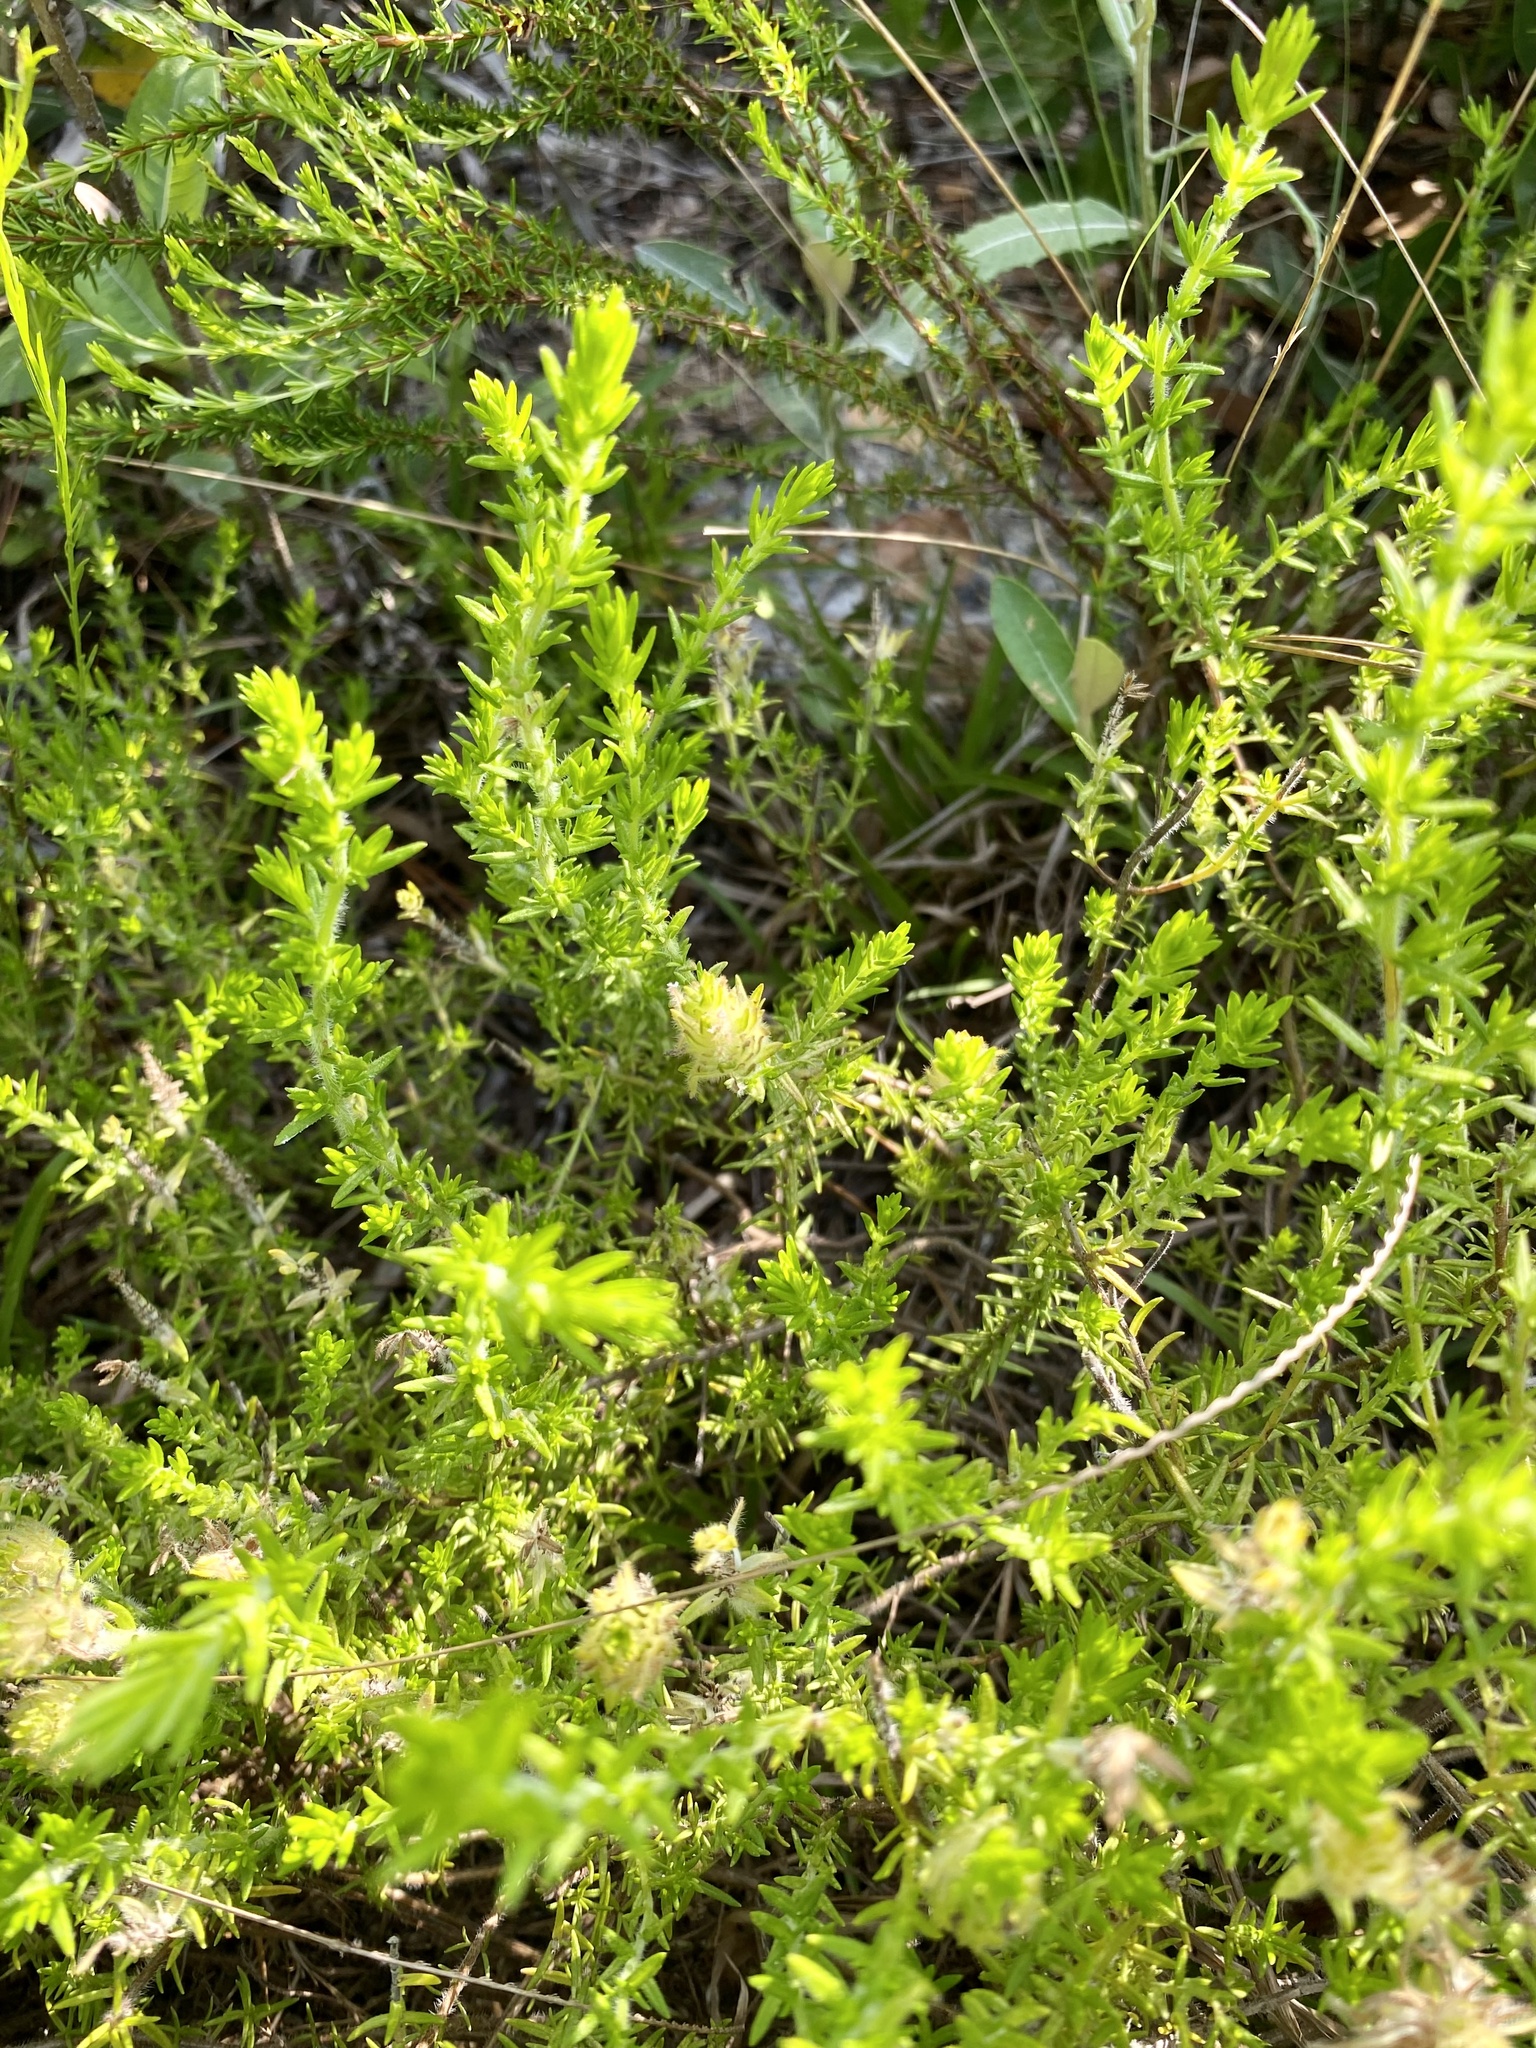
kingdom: Plantae
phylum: Tracheophyta
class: Magnoliopsida
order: Lamiales
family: Lamiaceae
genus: Piloblephis
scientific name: Piloblephis rigida
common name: Wild pennyroyal
